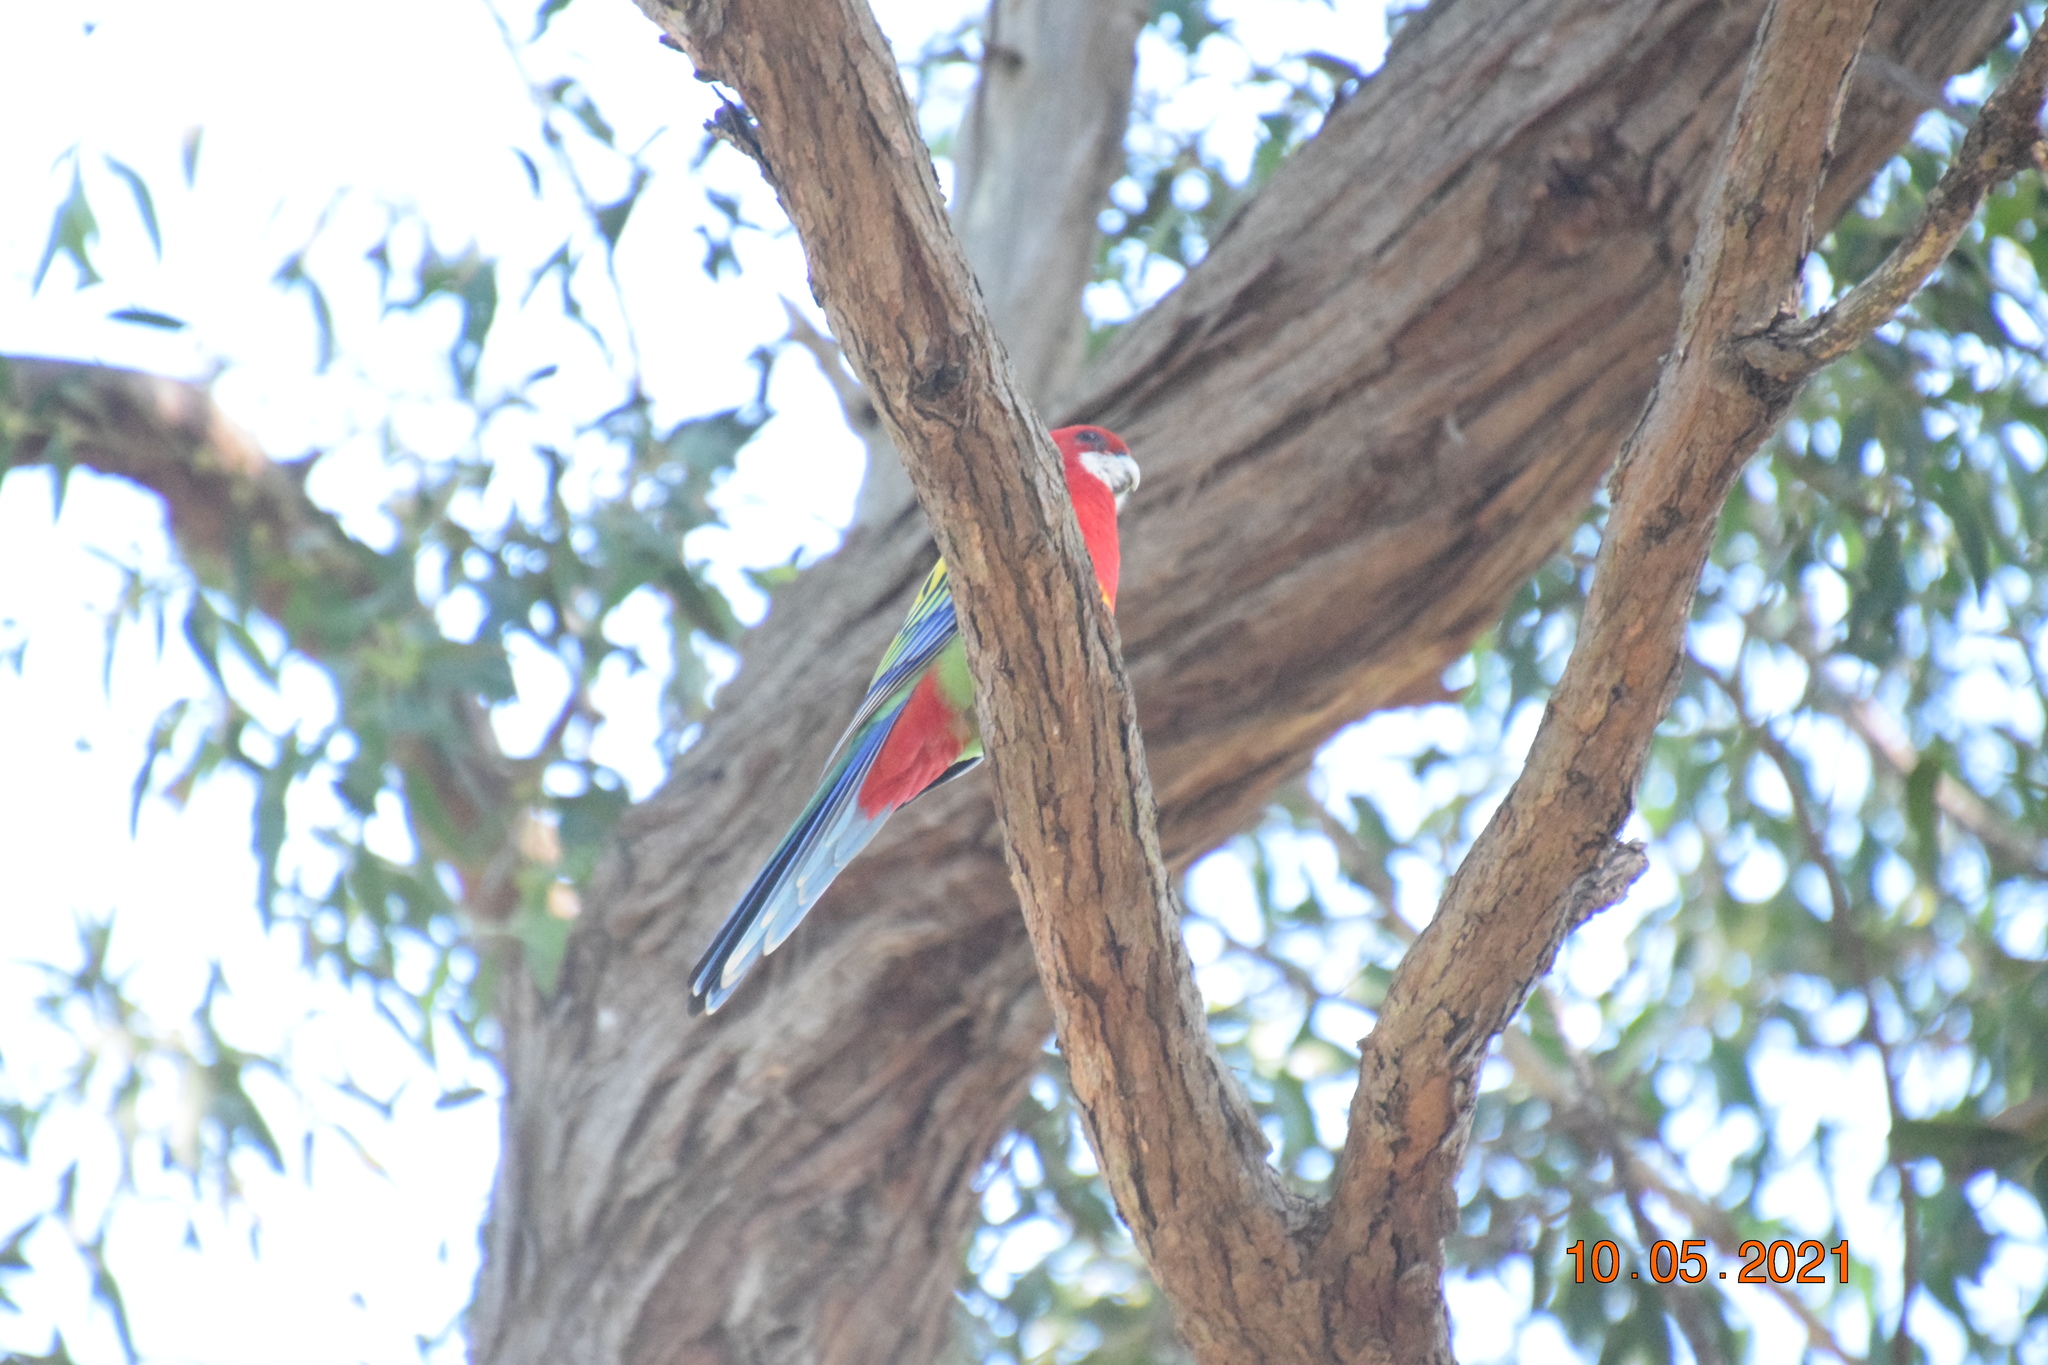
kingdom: Animalia
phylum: Chordata
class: Aves
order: Psittaciformes
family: Psittacidae
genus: Platycercus
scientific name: Platycercus eximius
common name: Eastern rosella
